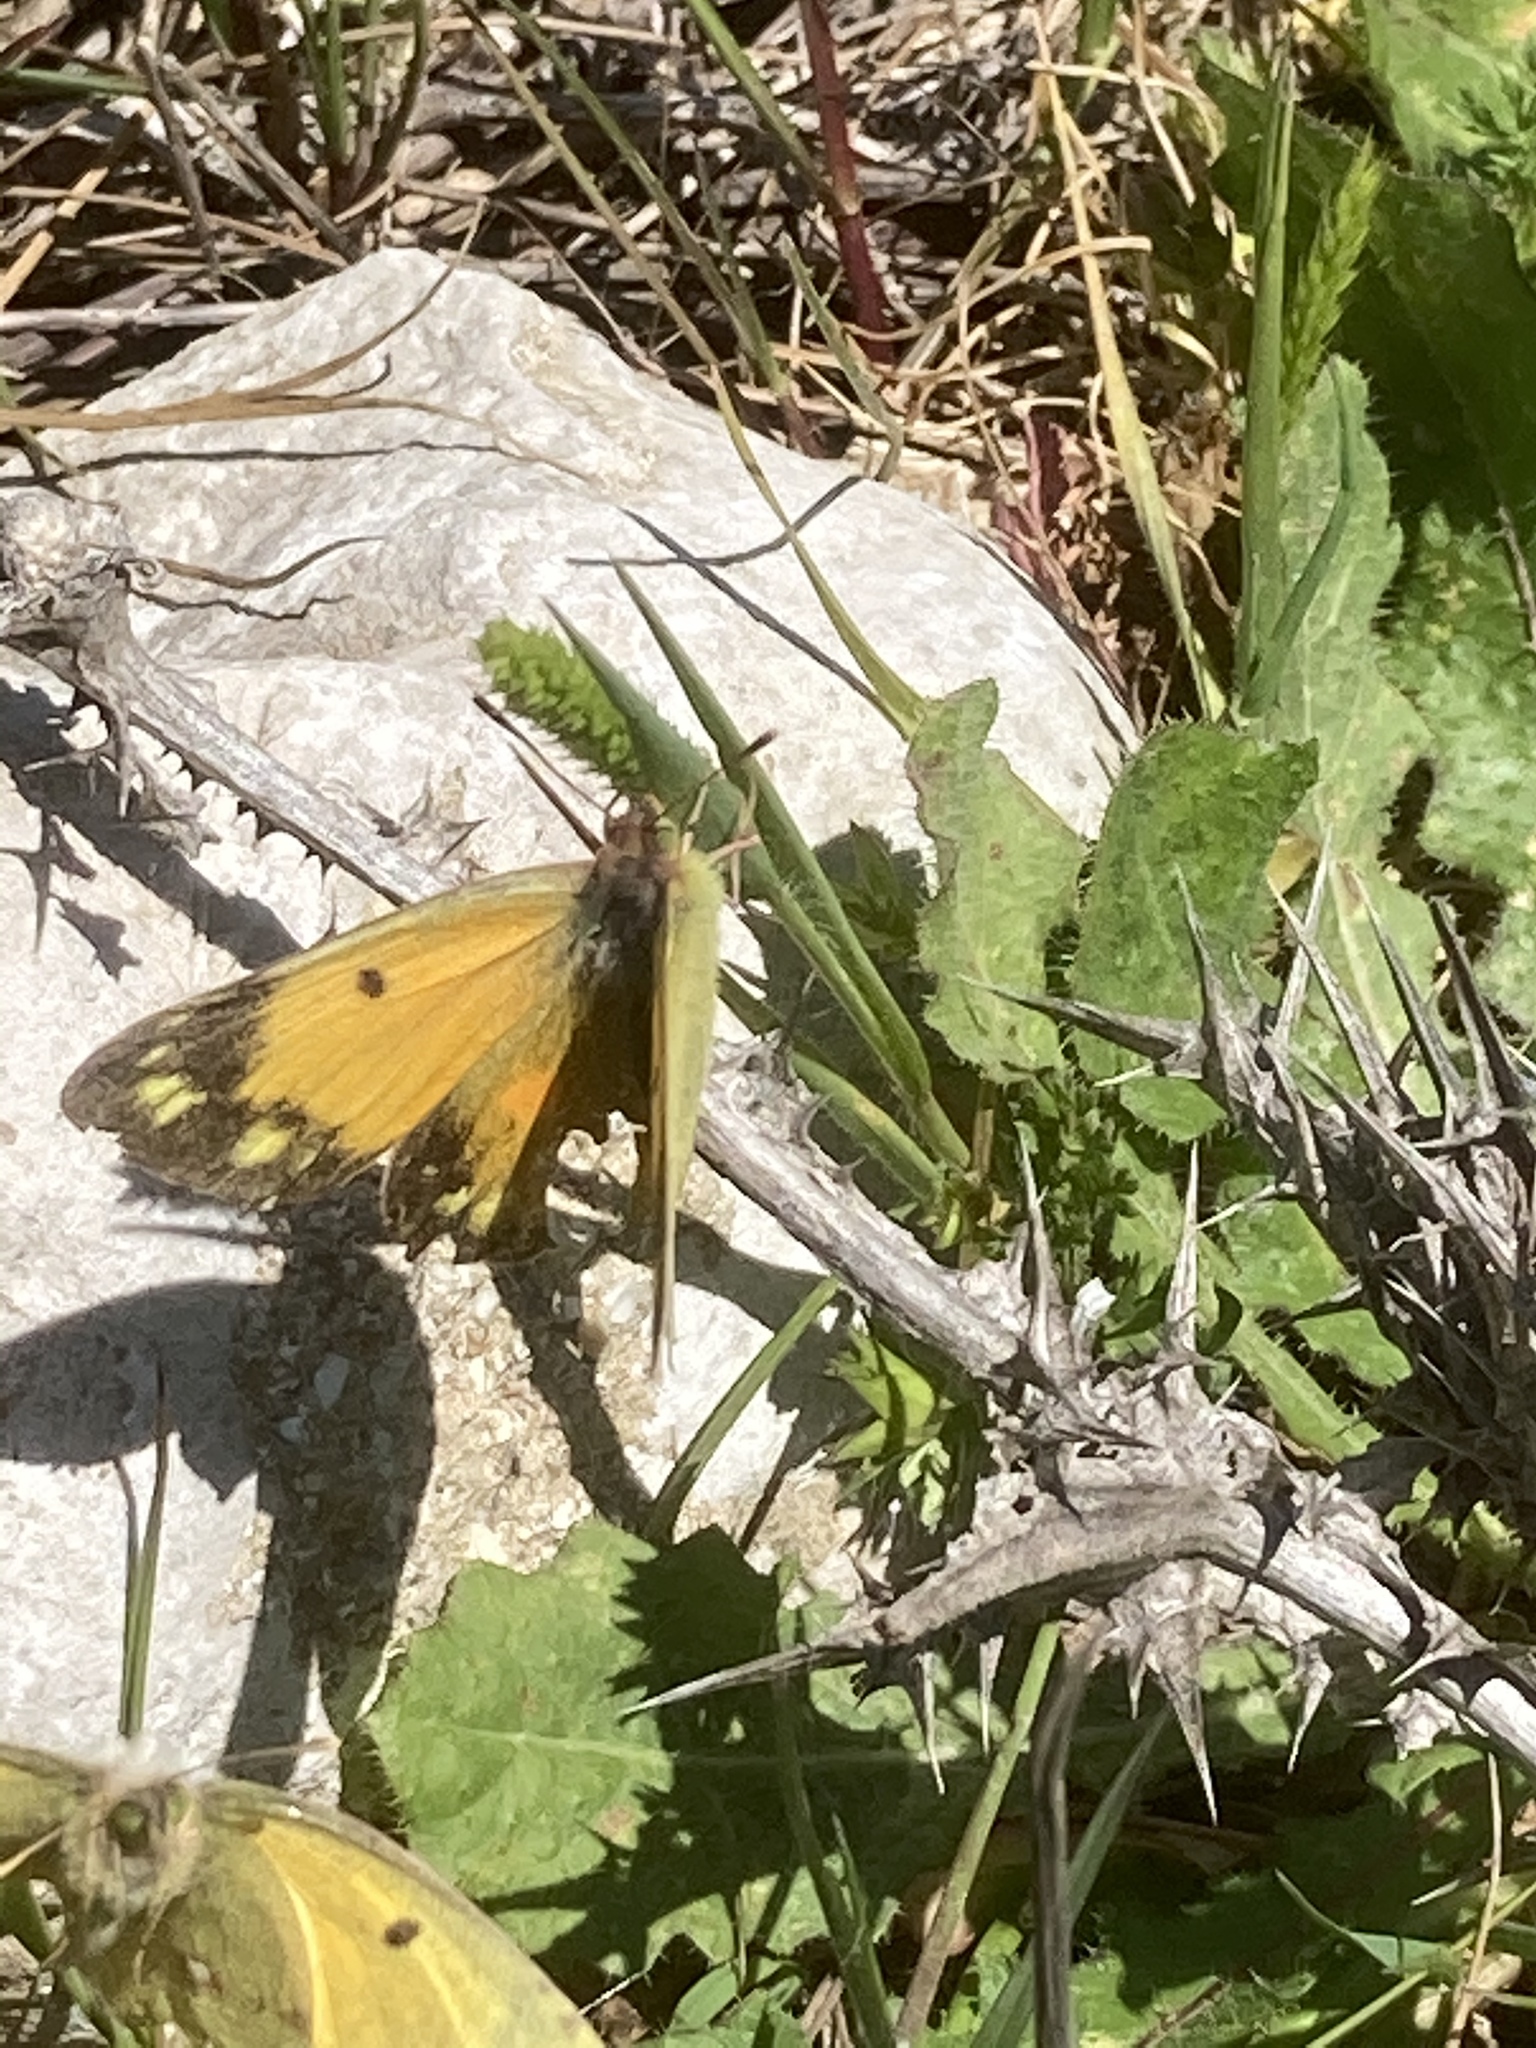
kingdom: Animalia
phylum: Arthropoda
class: Insecta
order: Lepidoptera
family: Pieridae
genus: Colias
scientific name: Colias croceus
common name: Clouded yellow
